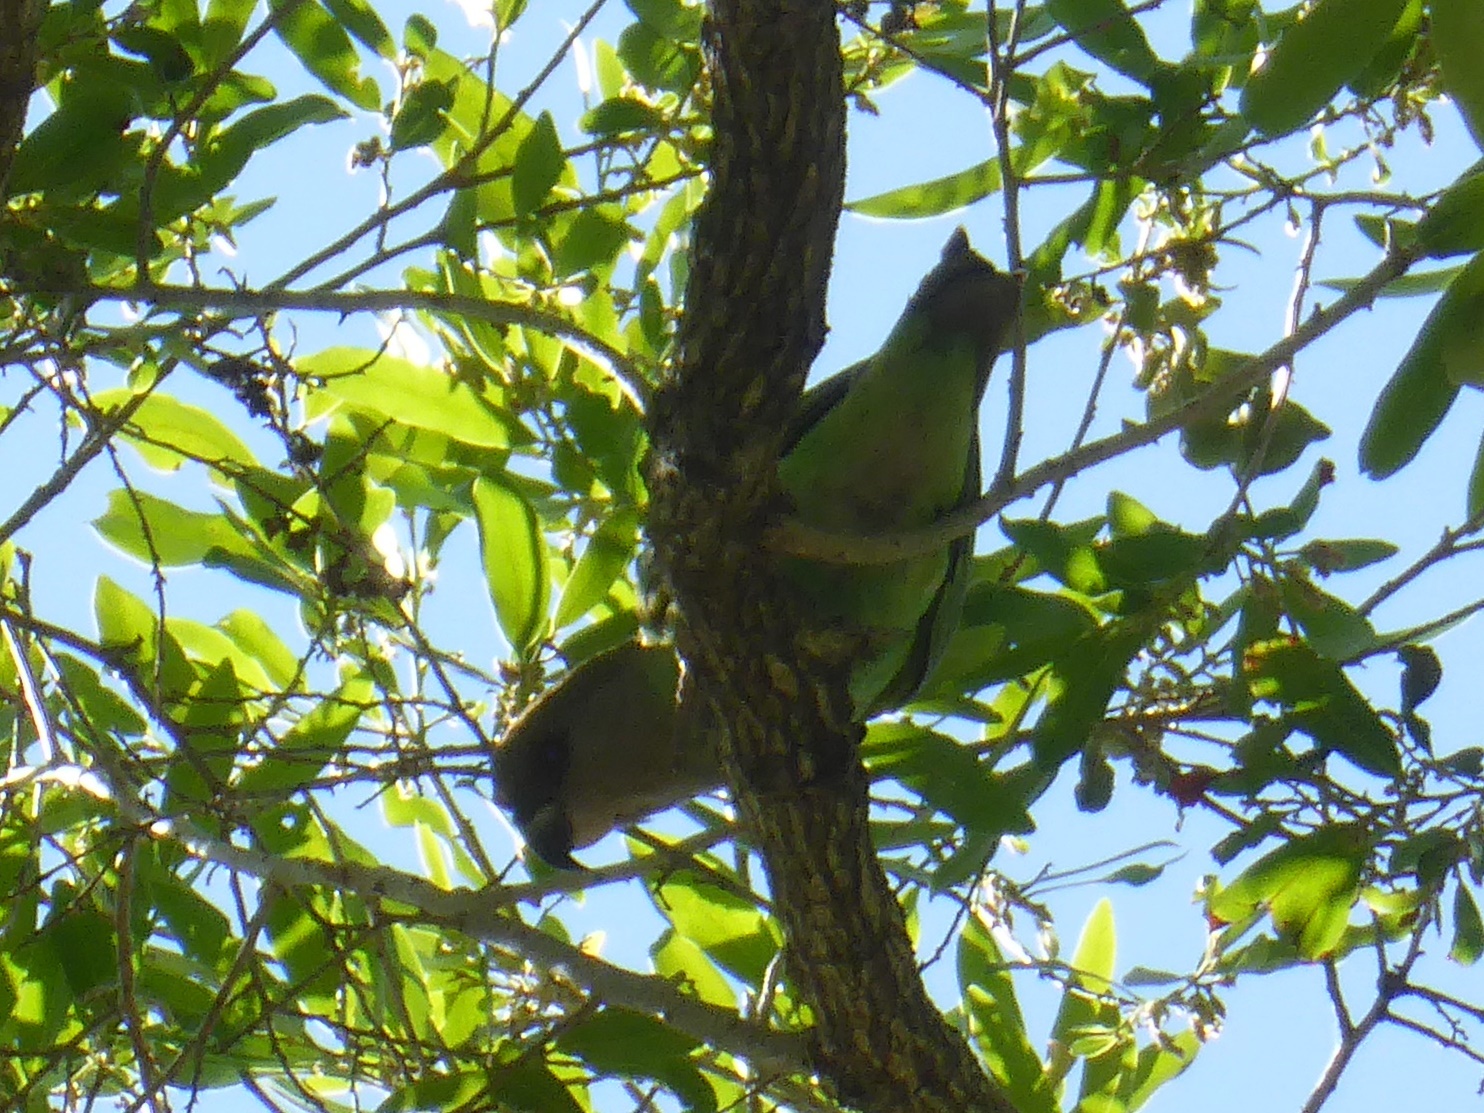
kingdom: Animalia
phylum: Chordata
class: Aves
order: Psittaciformes
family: Psittacidae
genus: Poicephalus
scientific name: Poicephalus cryptoxanthus
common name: Brown-headed parrot
